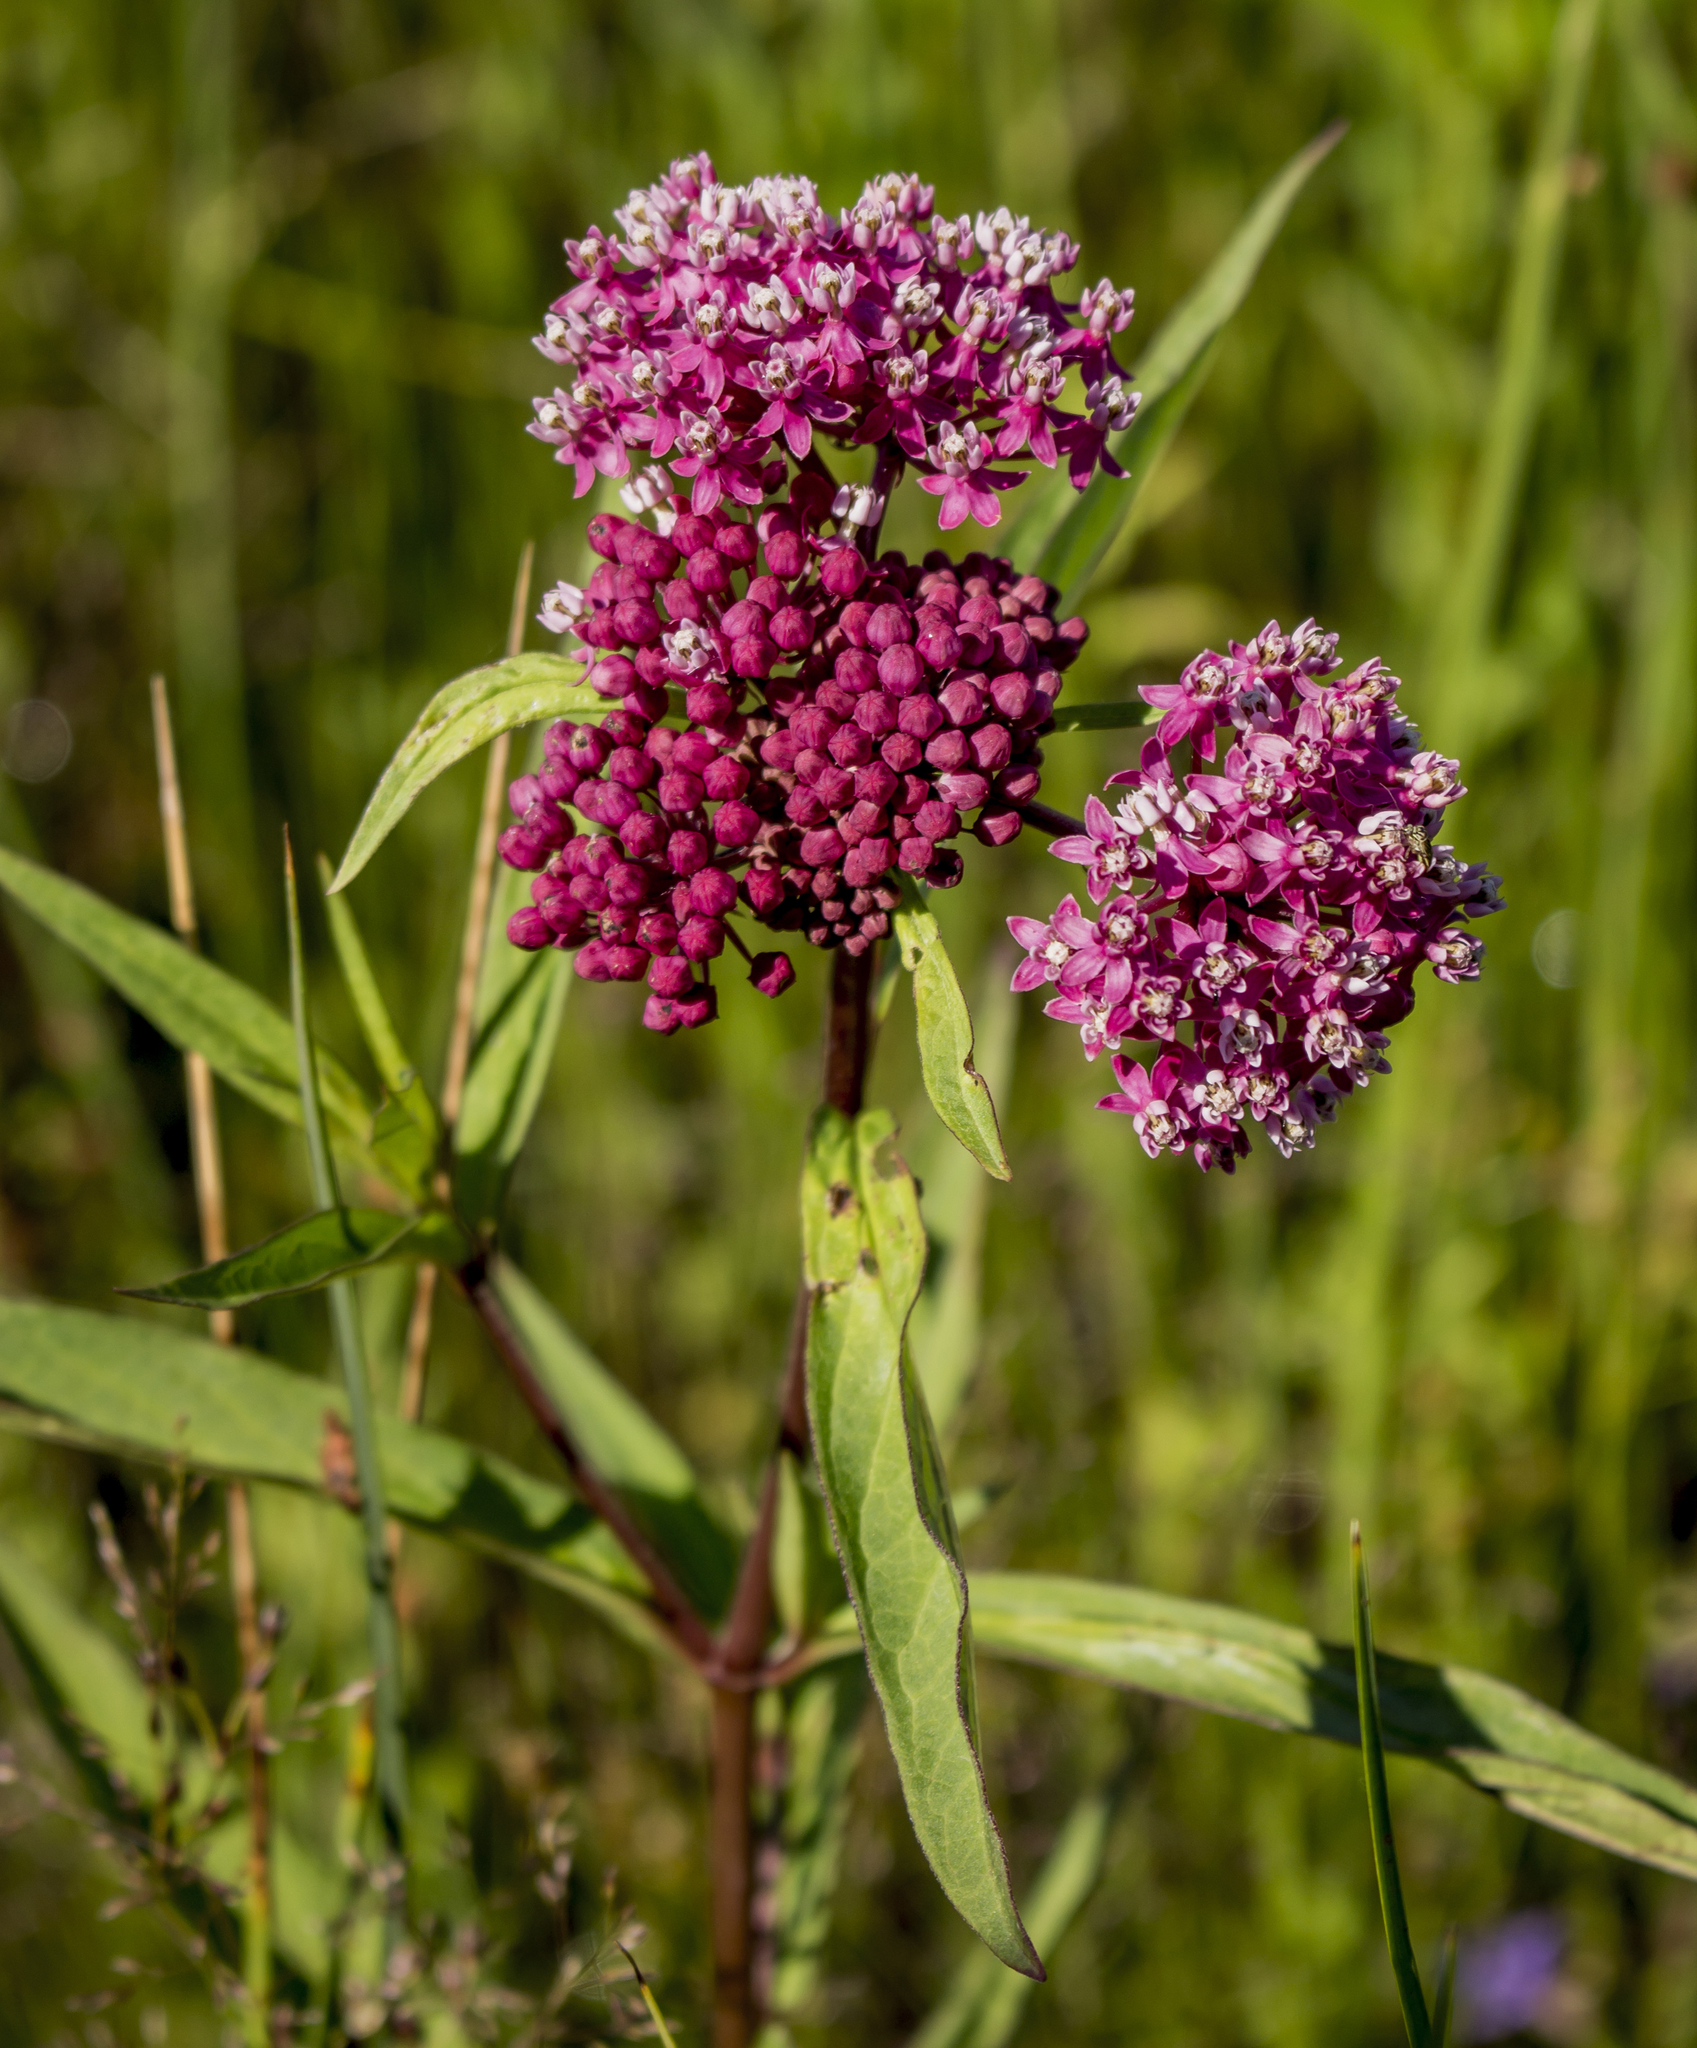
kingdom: Plantae
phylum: Tracheophyta
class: Magnoliopsida
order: Gentianales
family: Apocynaceae
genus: Asclepias
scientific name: Asclepias incarnata
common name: Swamp milkweed
